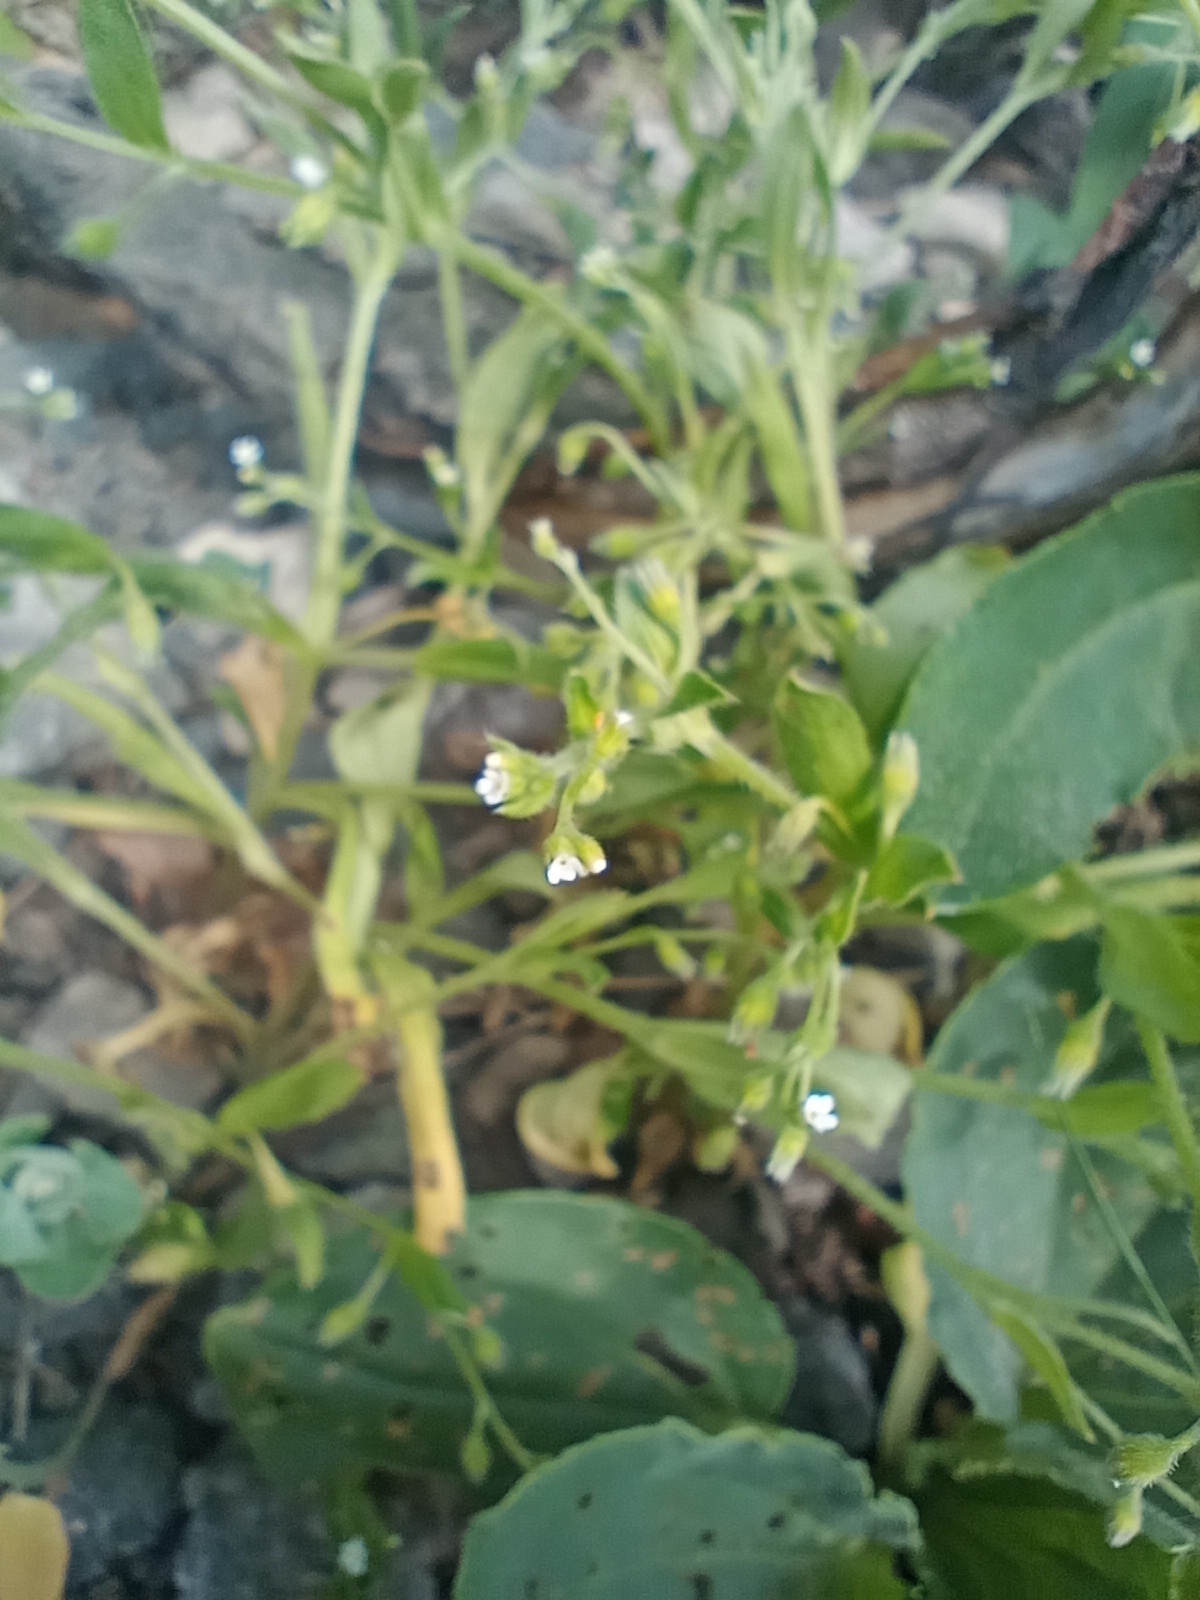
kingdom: Plantae
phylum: Tracheophyta
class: Magnoliopsida
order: Boraginales
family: Boraginaceae
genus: Myosotis
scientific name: Myosotis sparsiflora
